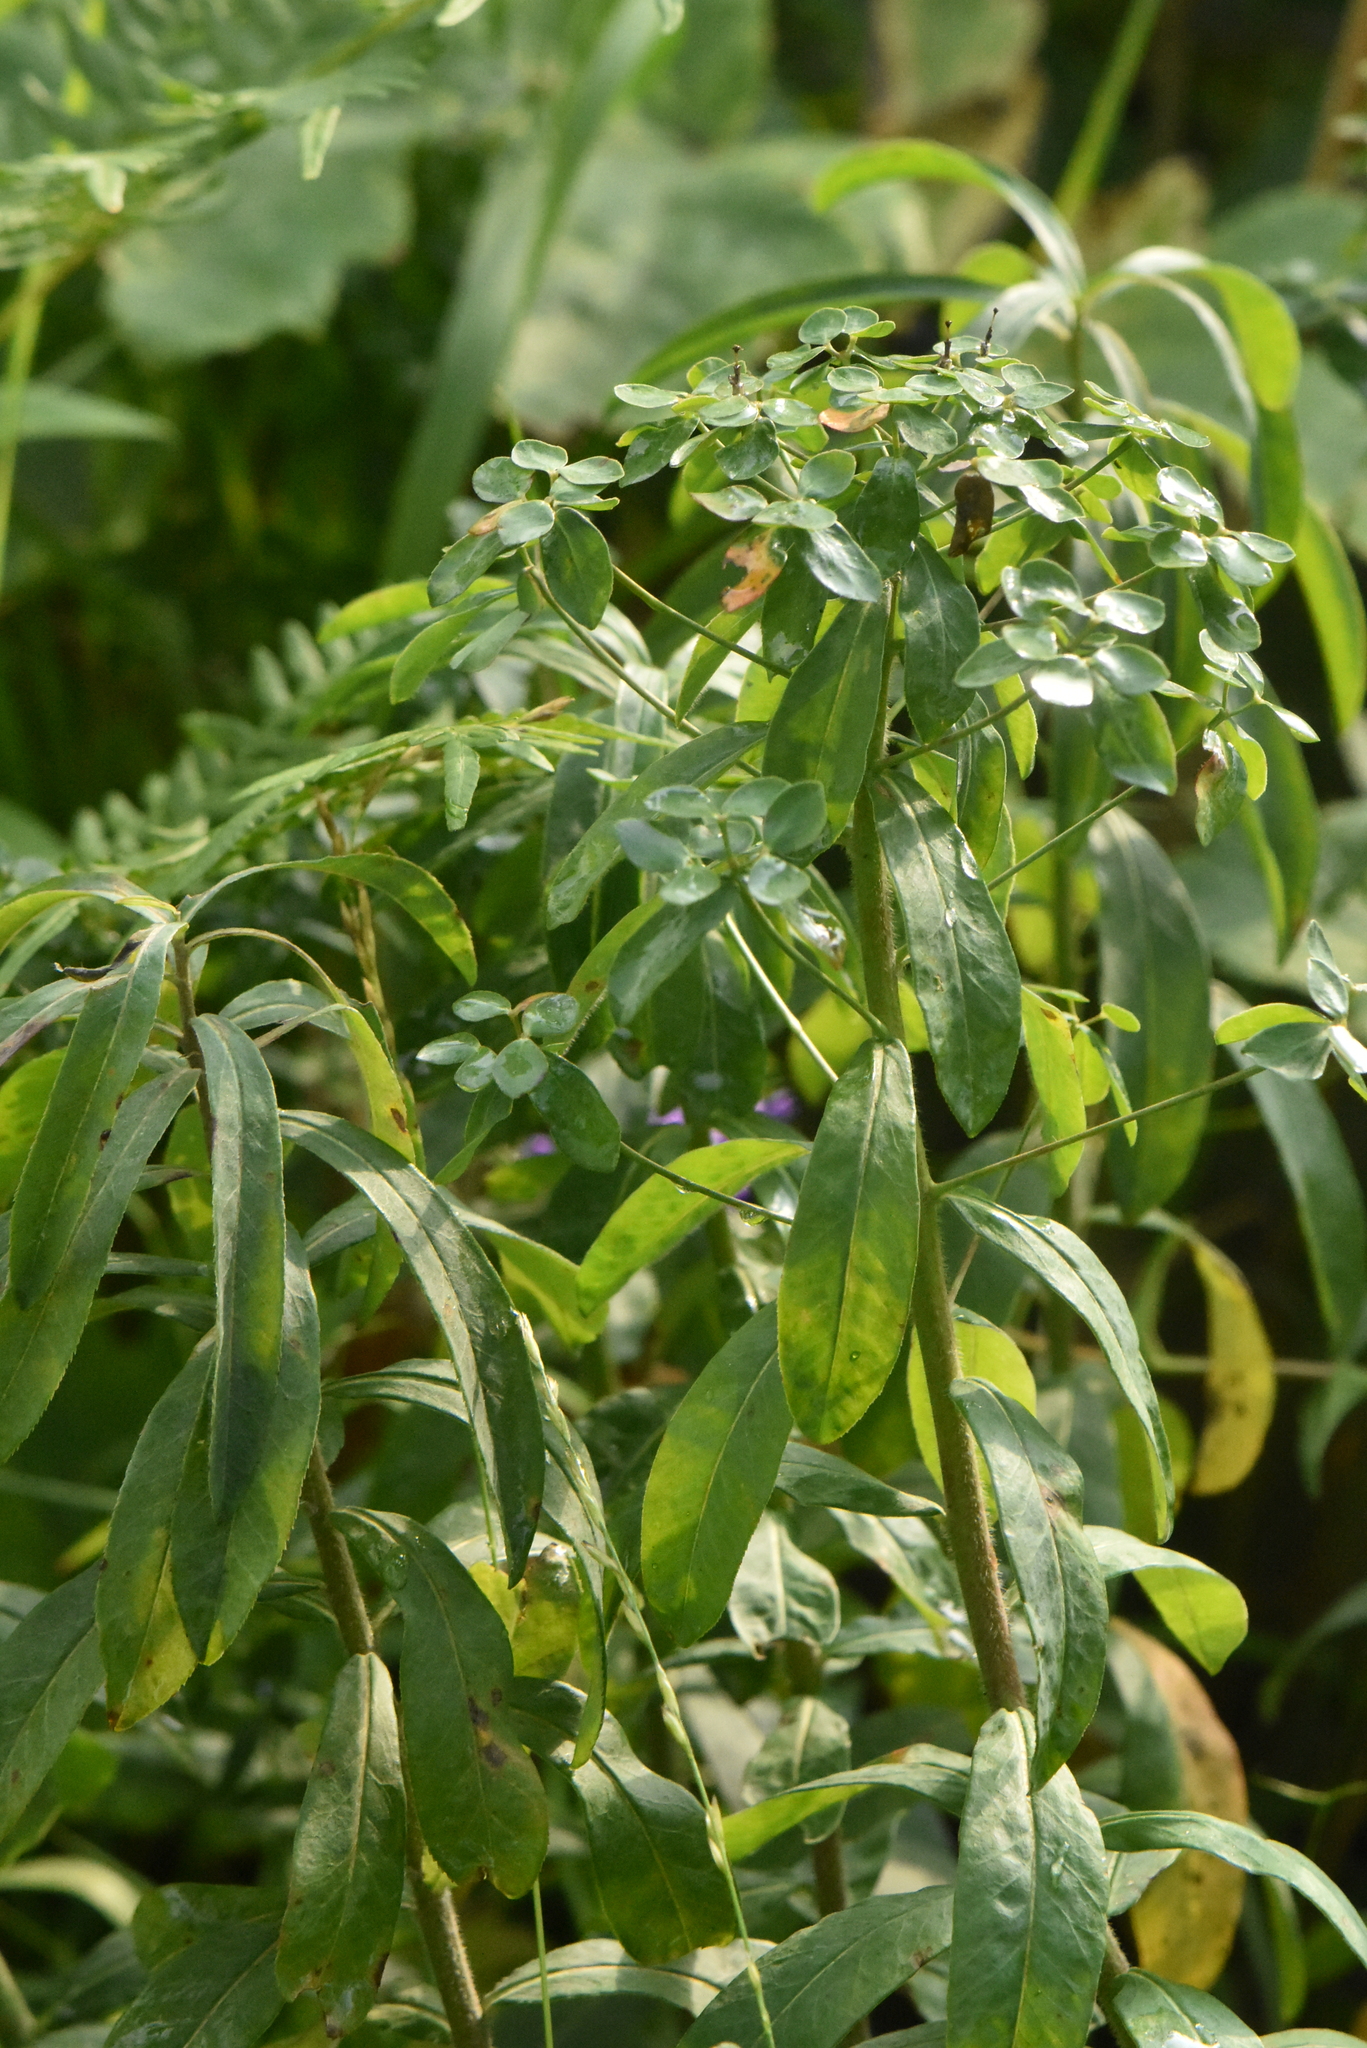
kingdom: Plantae
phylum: Tracheophyta
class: Magnoliopsida
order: Malpighiales
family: Euphorbiaceae
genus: Euphorbia
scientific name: Euphorbia pilosa
